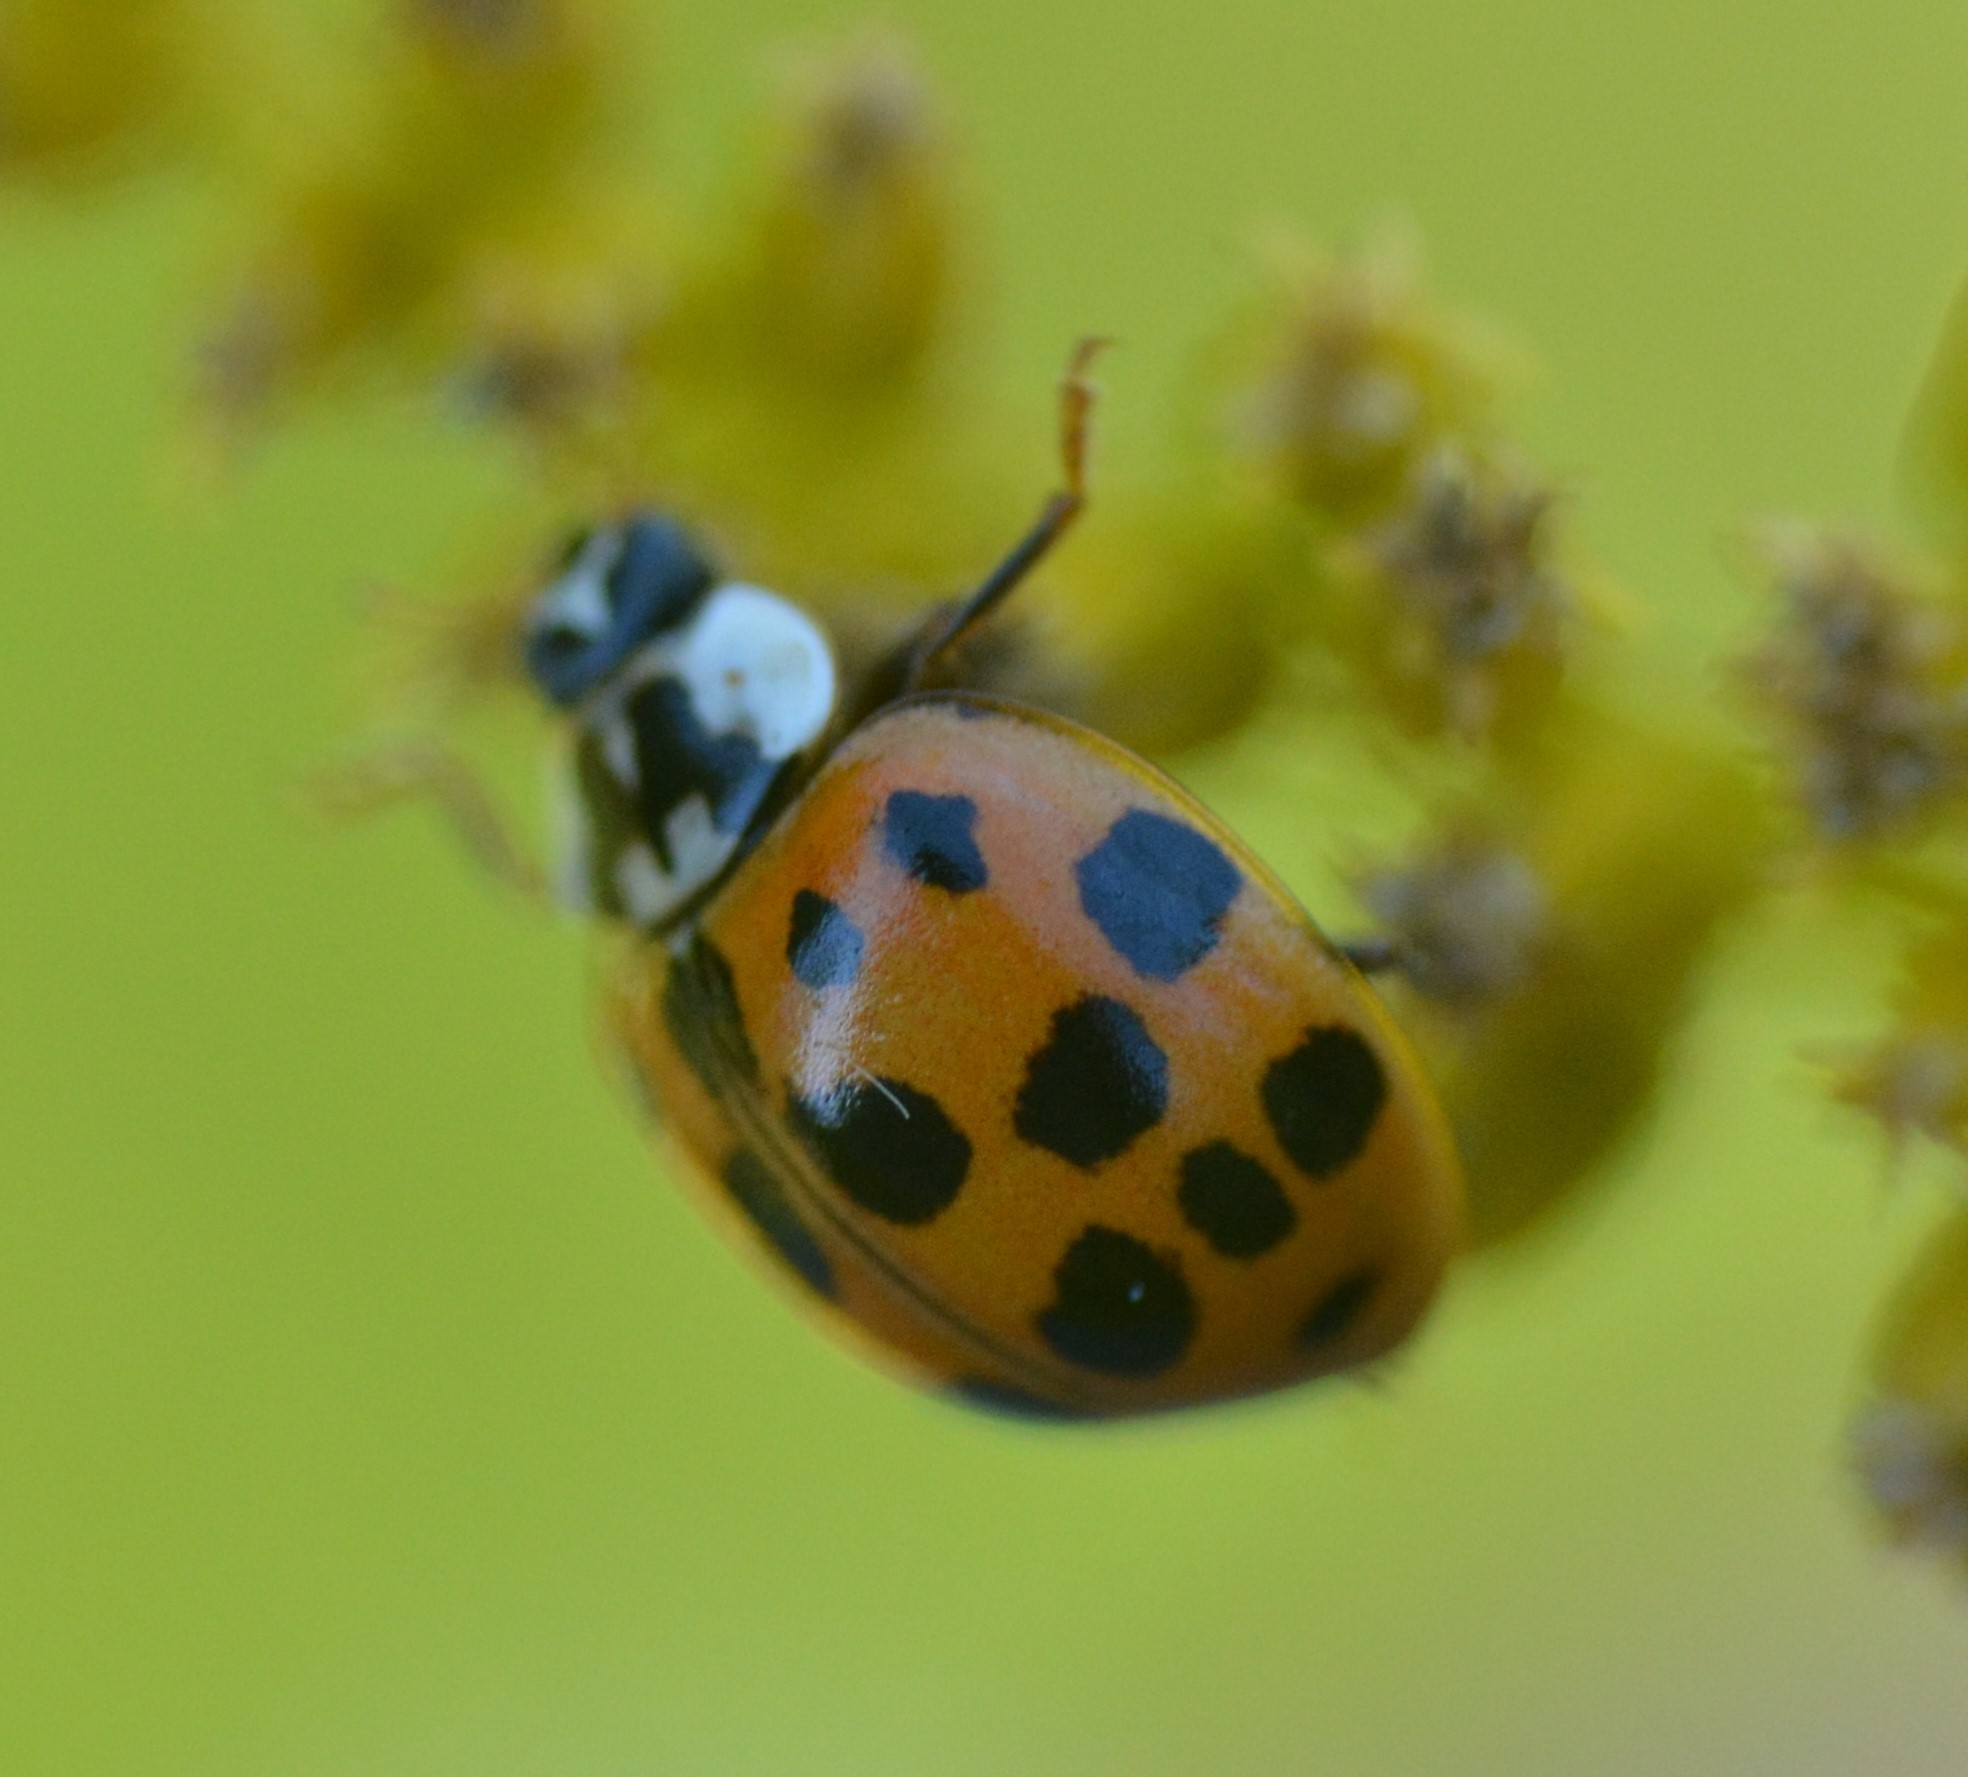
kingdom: Animalia
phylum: Arthropoda
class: Insecta
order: Coleoptera
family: Coccinellidae
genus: Harmonia
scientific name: Harmonia axyridis
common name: Harlequin ladybird
